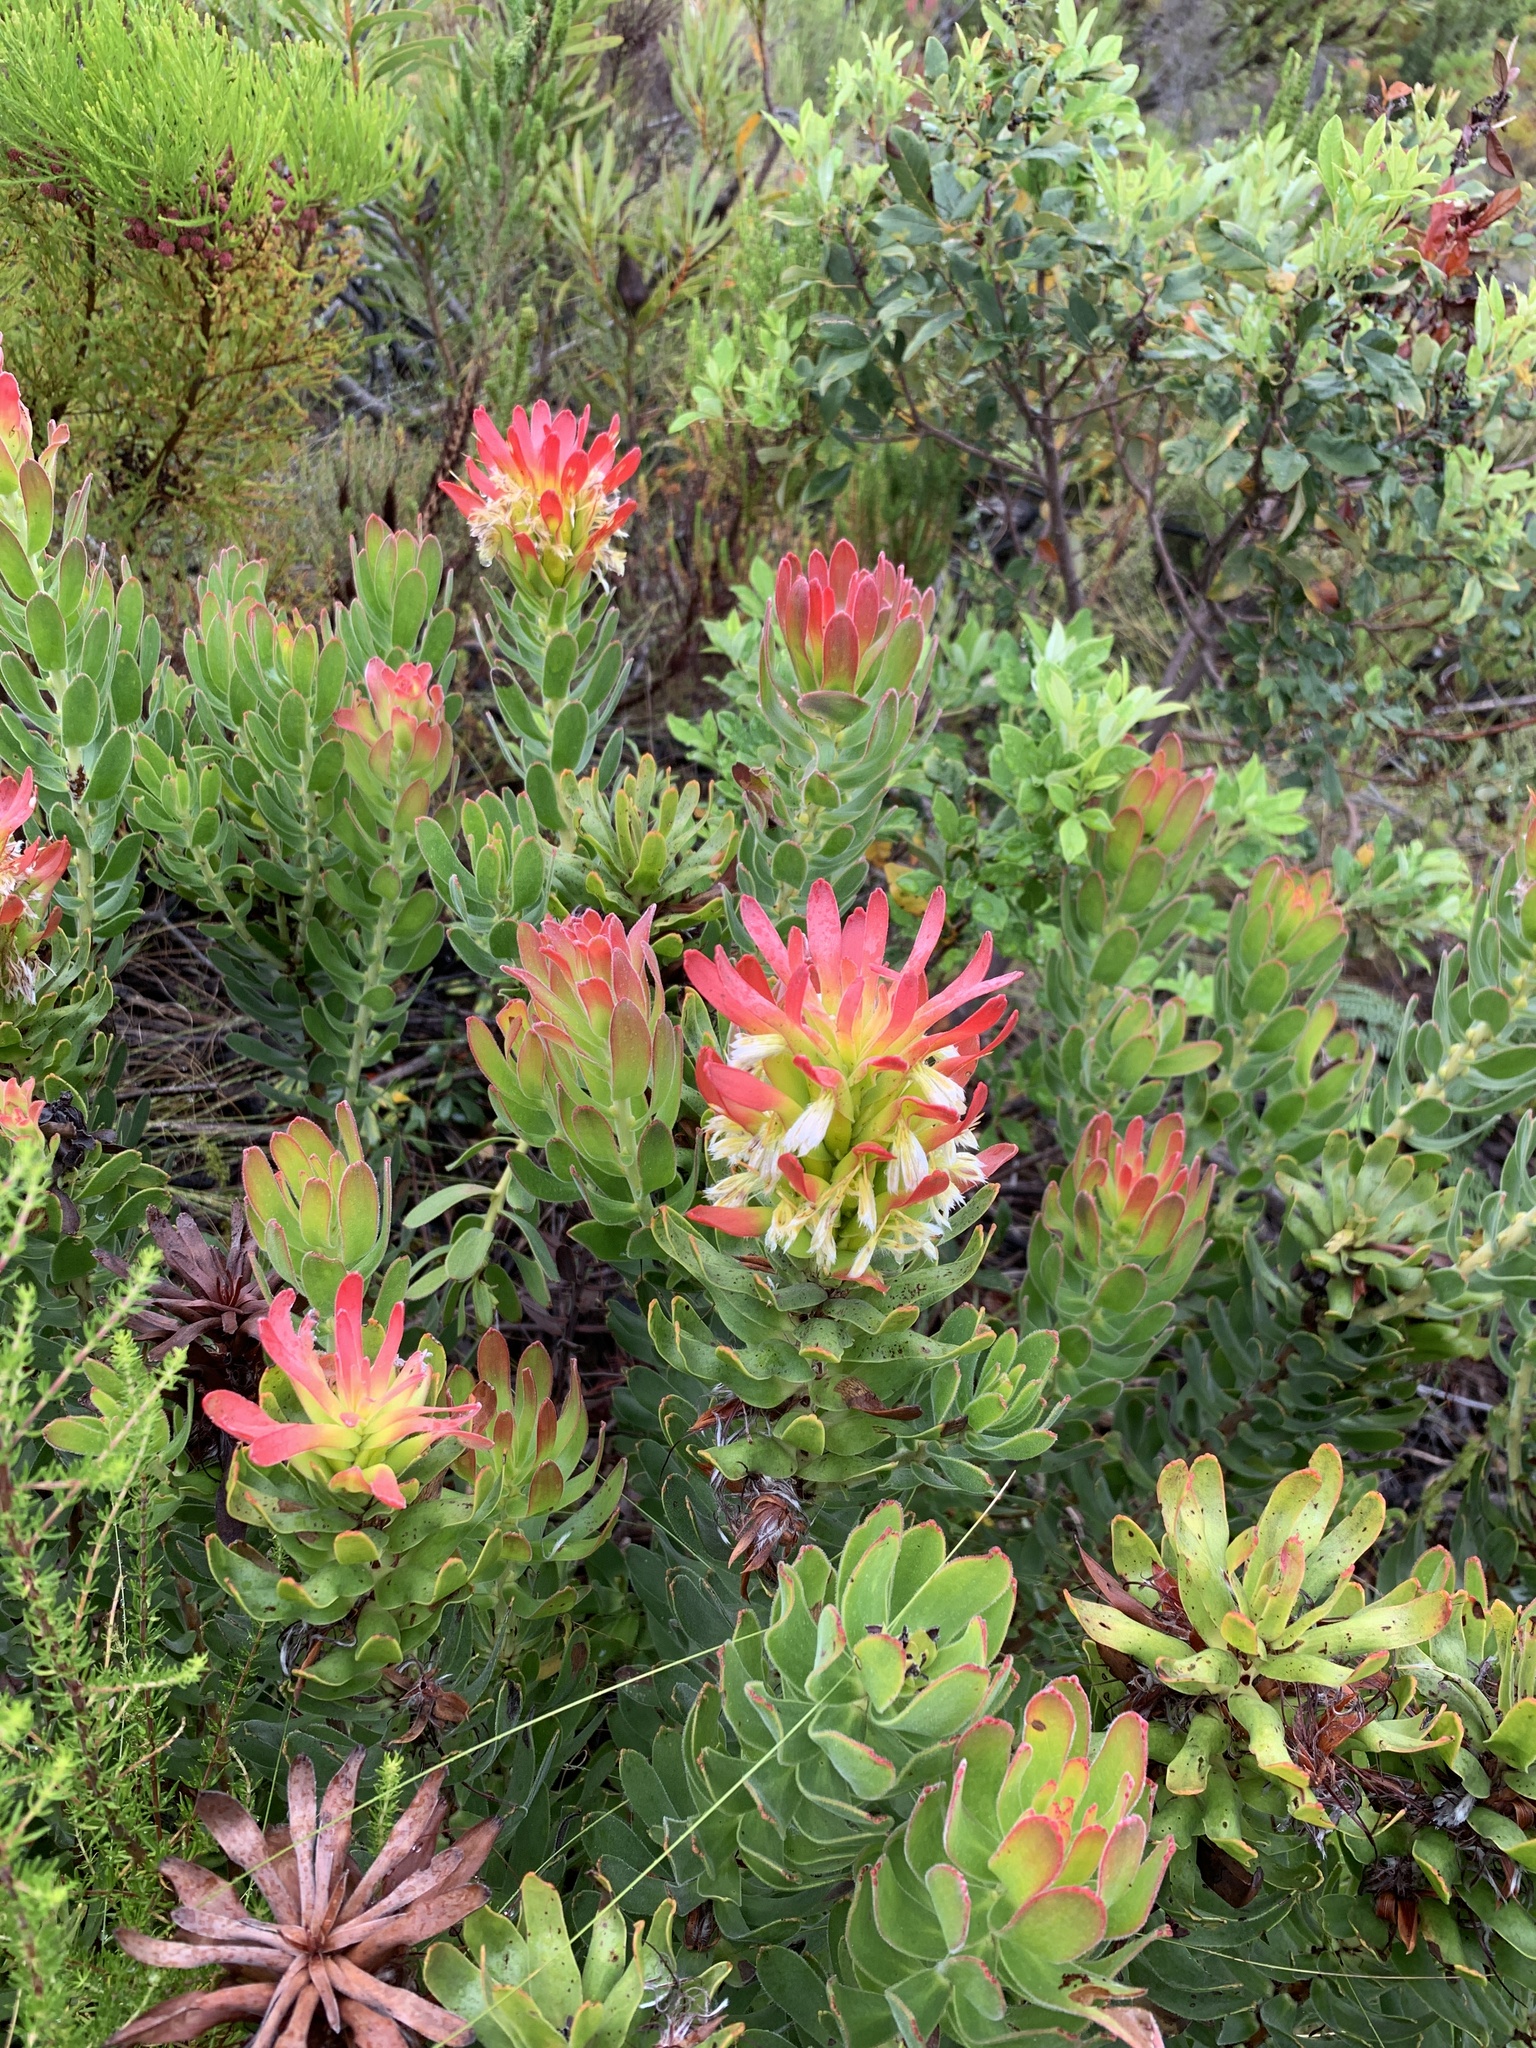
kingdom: Plantae
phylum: Tracheophyta
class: Magnoliopsida
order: Proteales
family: Proteaceae
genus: Mimetes
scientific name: Mimetes cucullatus
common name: Common pagoda
